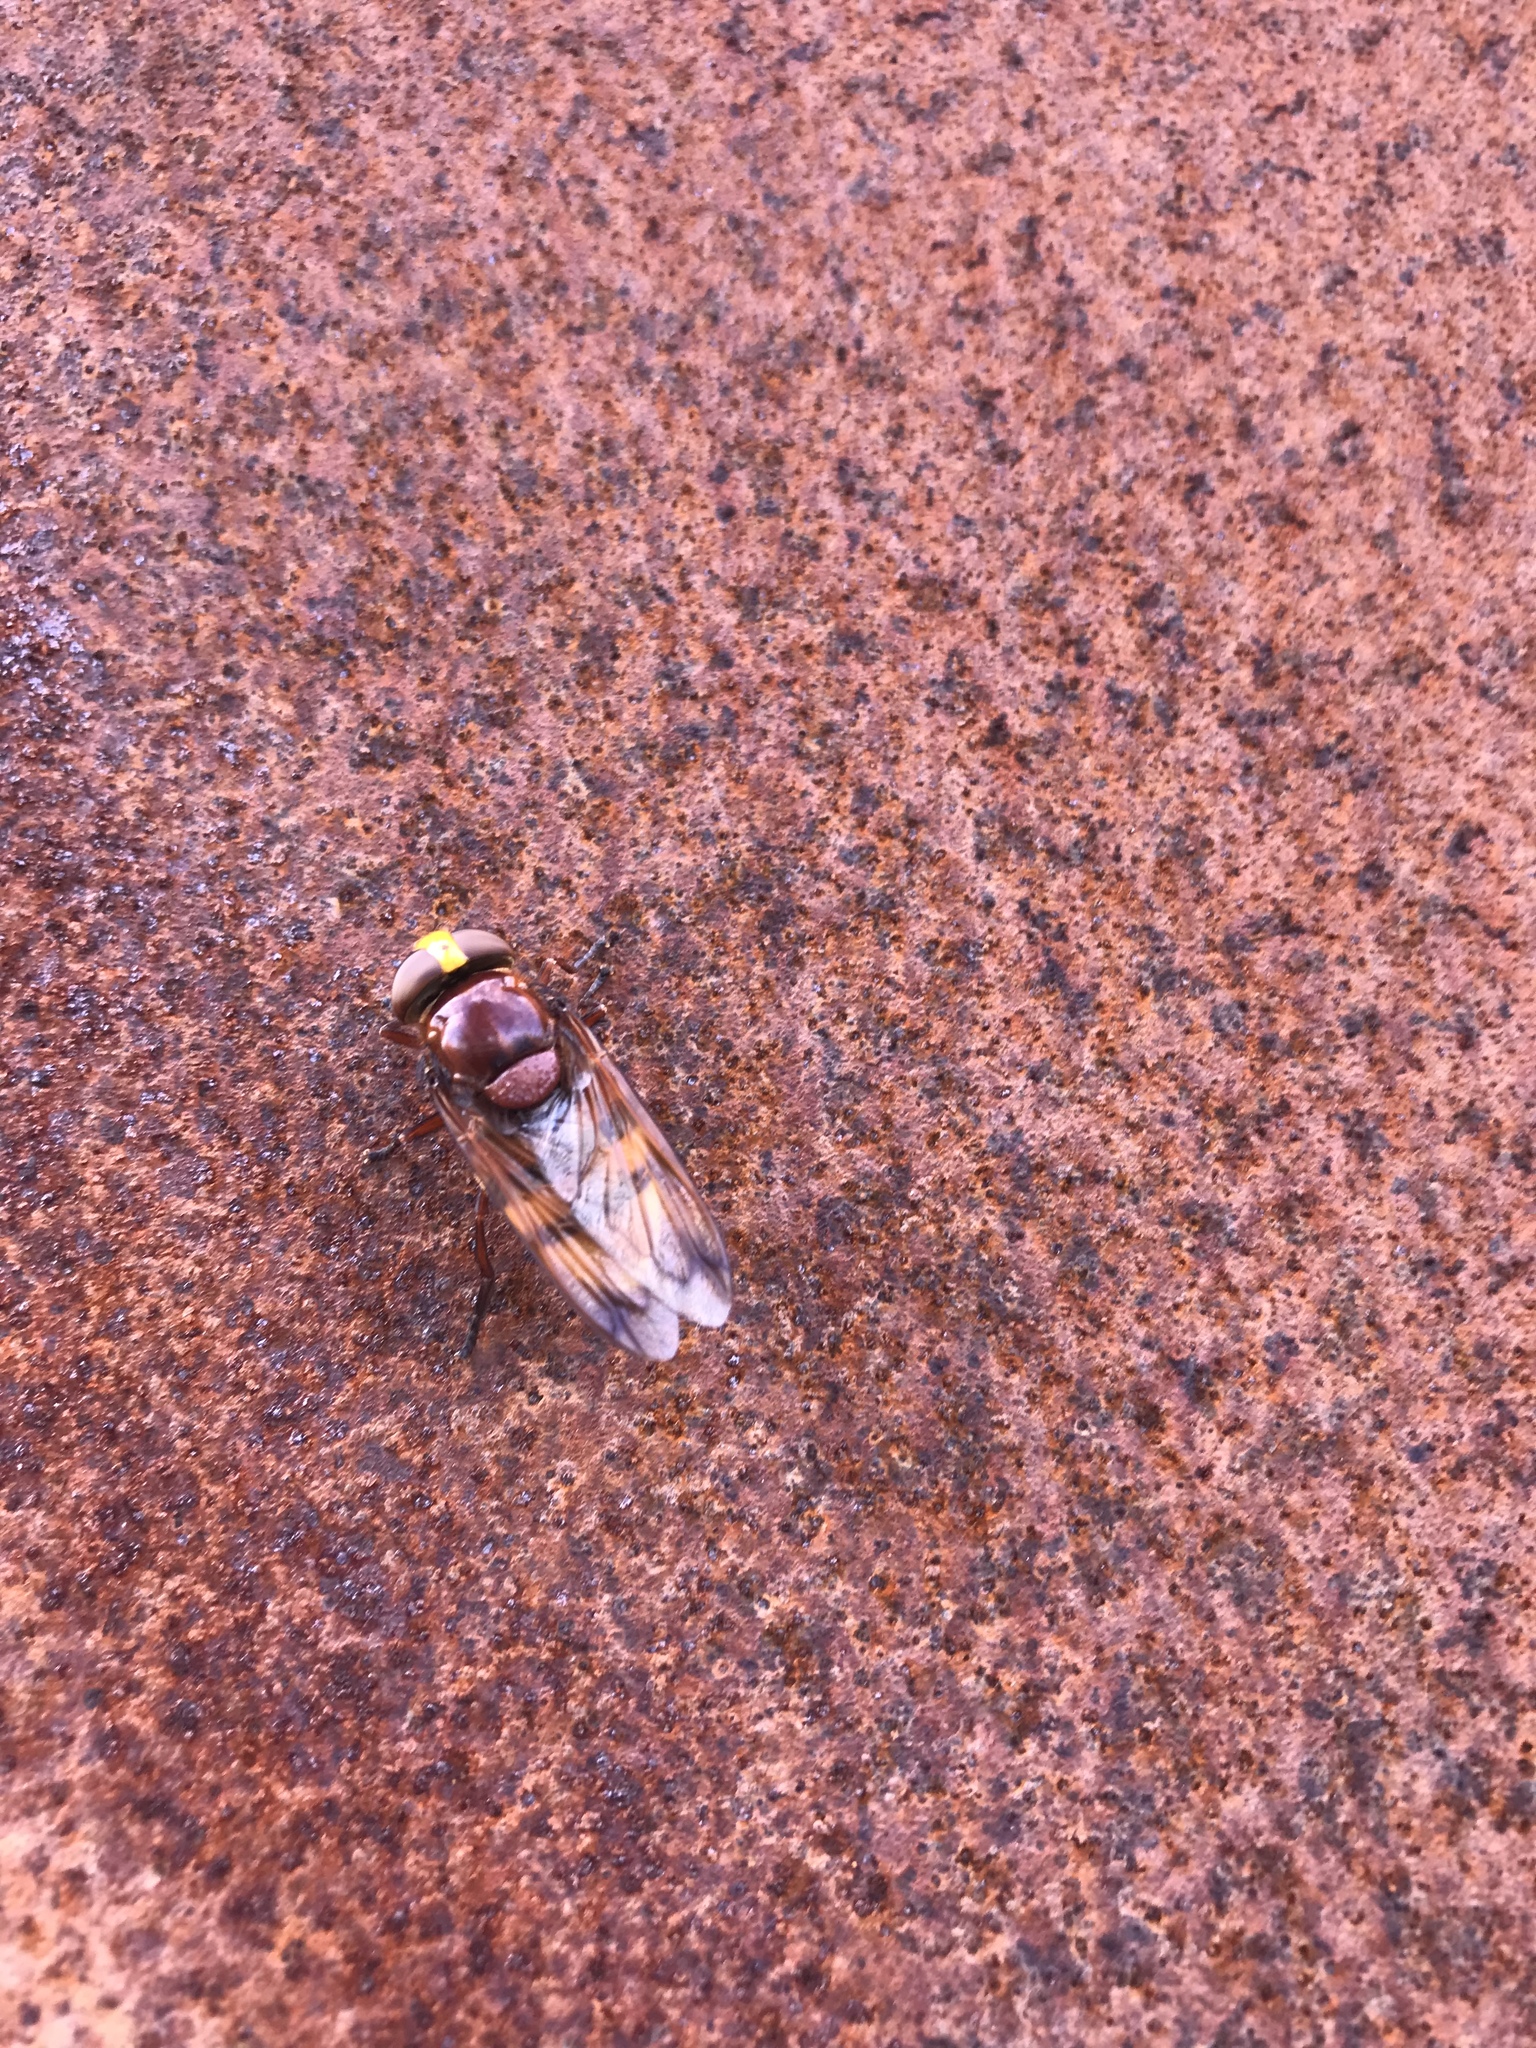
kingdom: Animalia
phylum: Arthropoda
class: Insecta
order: Diptera
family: Syrphidae
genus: Volucella
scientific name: Volucella zonaria
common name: Hornet hoverfly
